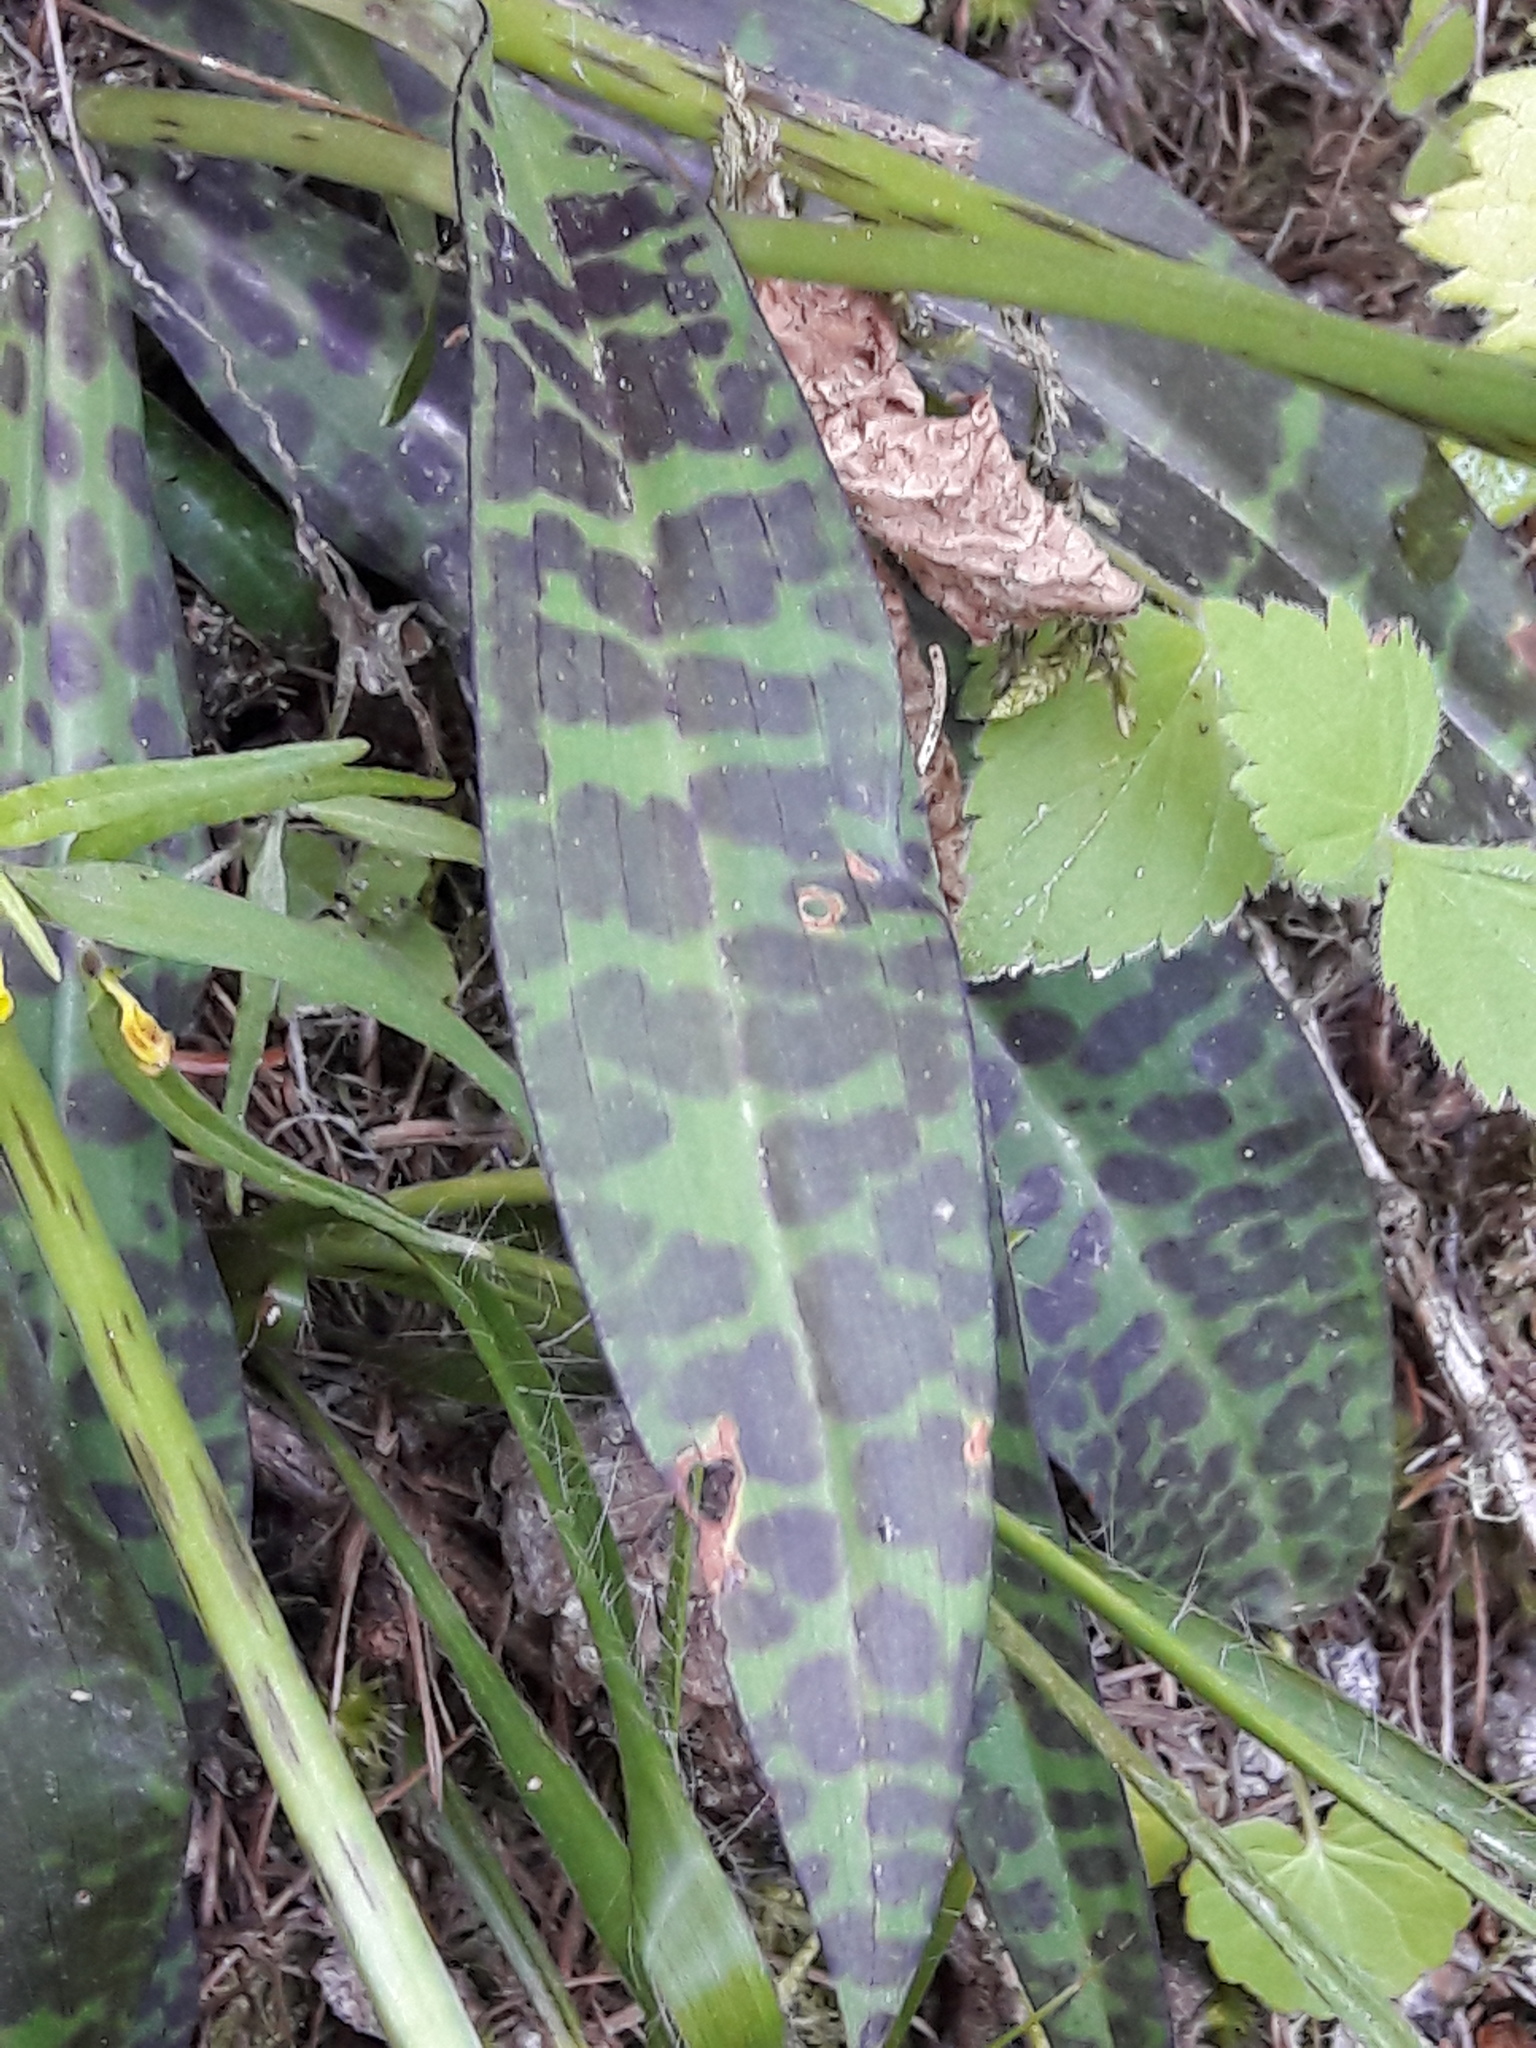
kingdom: Plantae
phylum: Tracheophyta
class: Liliopsida
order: Asparagales
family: Orchidaceae
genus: Dactylorhiza
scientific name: Dactylorhiza maculata
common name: Heath spotted-orchid
